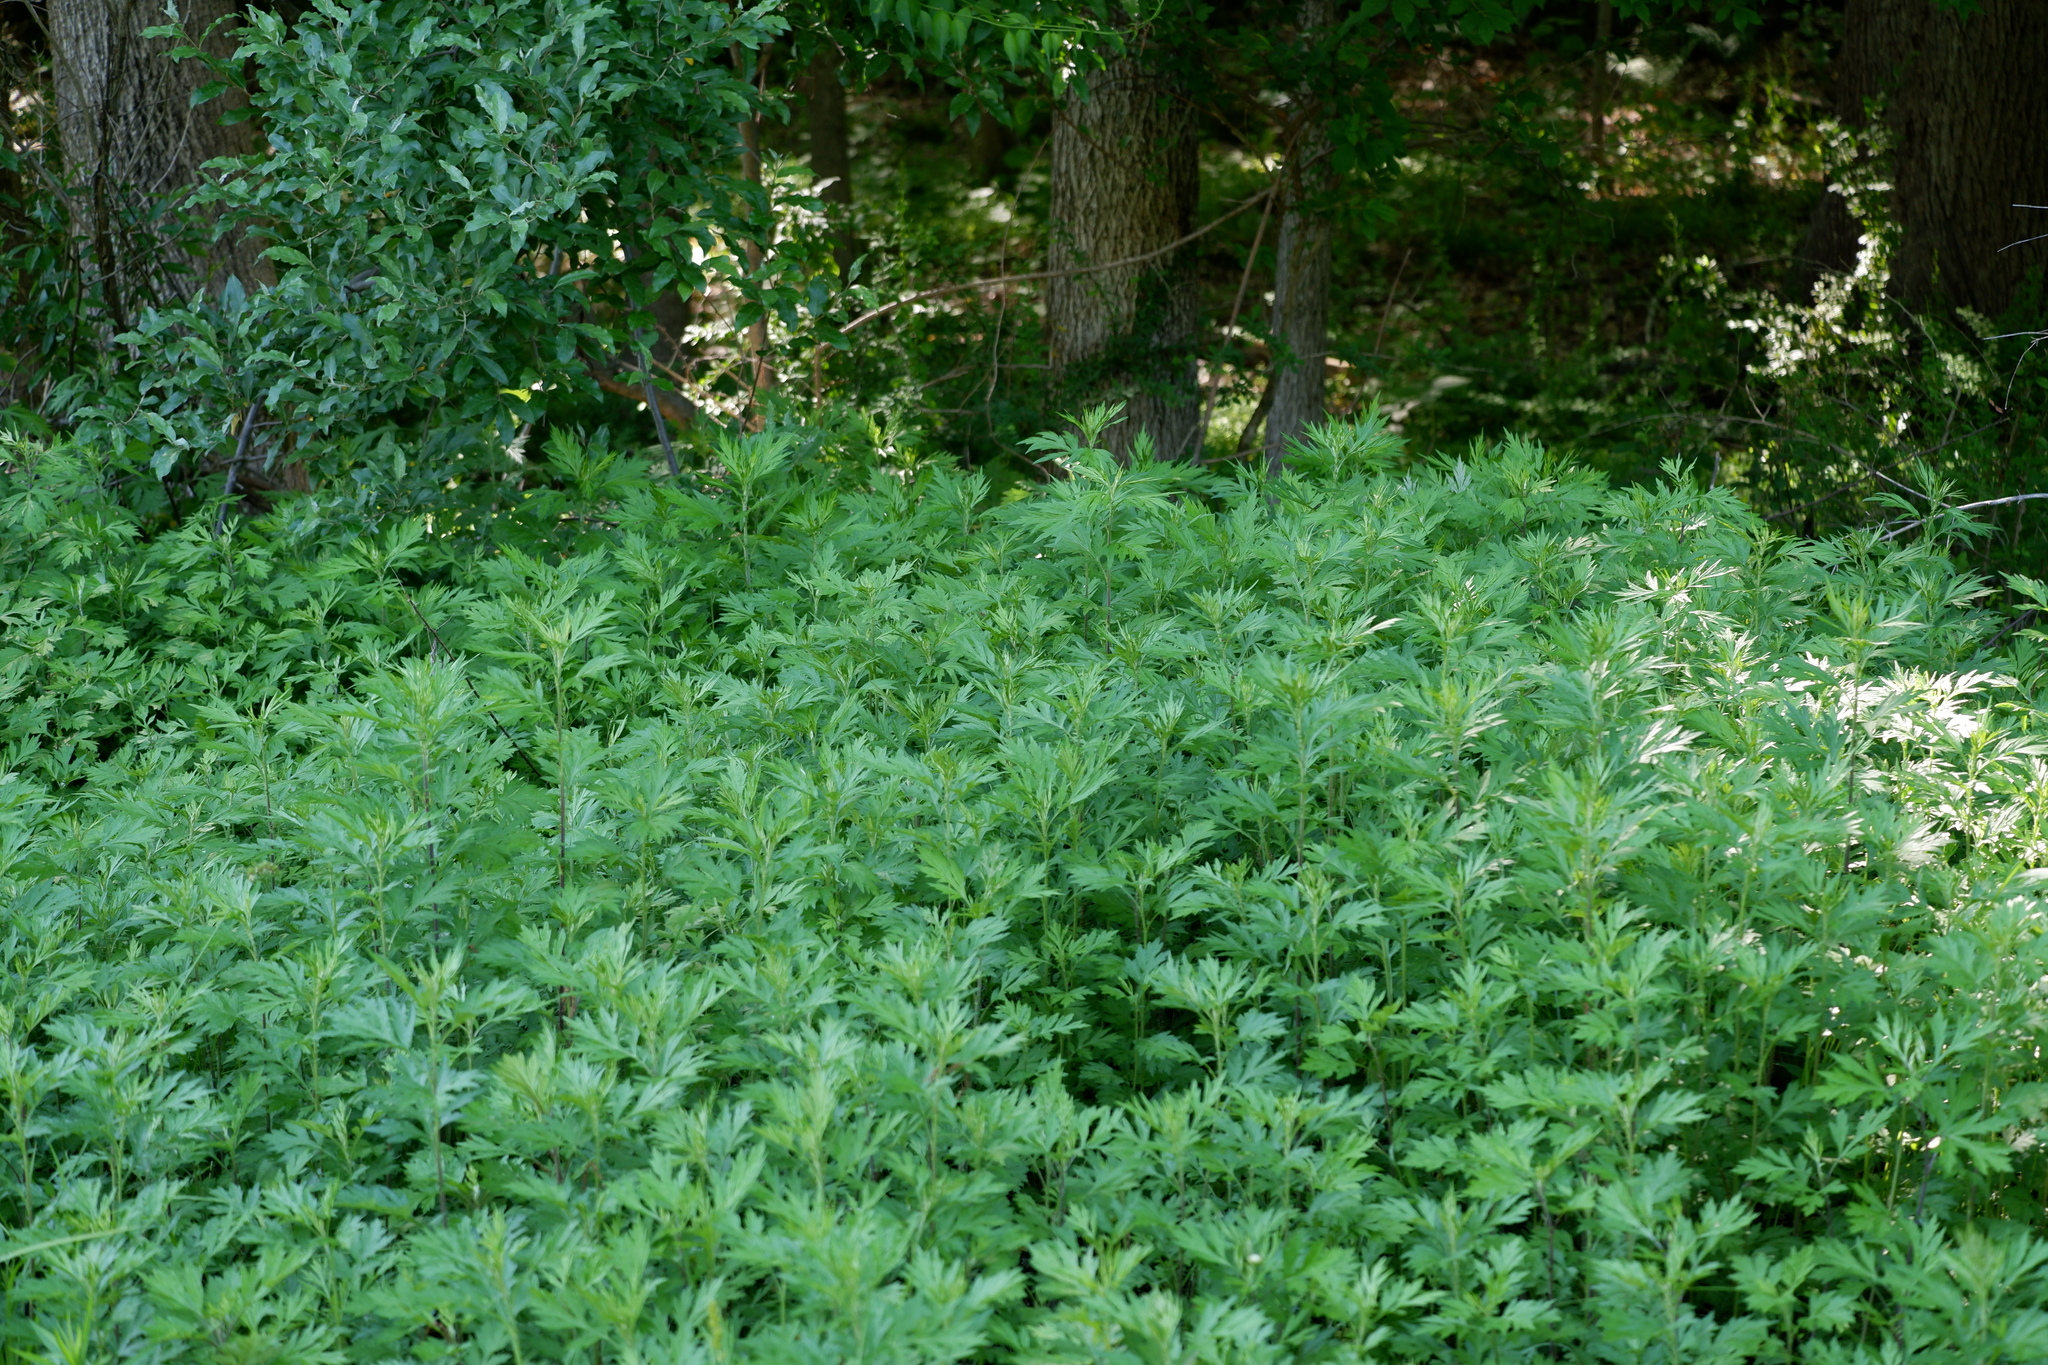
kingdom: Plantae
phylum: Tracheophyta
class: Magnoliopsida
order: Asterales
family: Asteraceae
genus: Artemisia
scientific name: Artemisia vulgaris
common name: Mugwort
